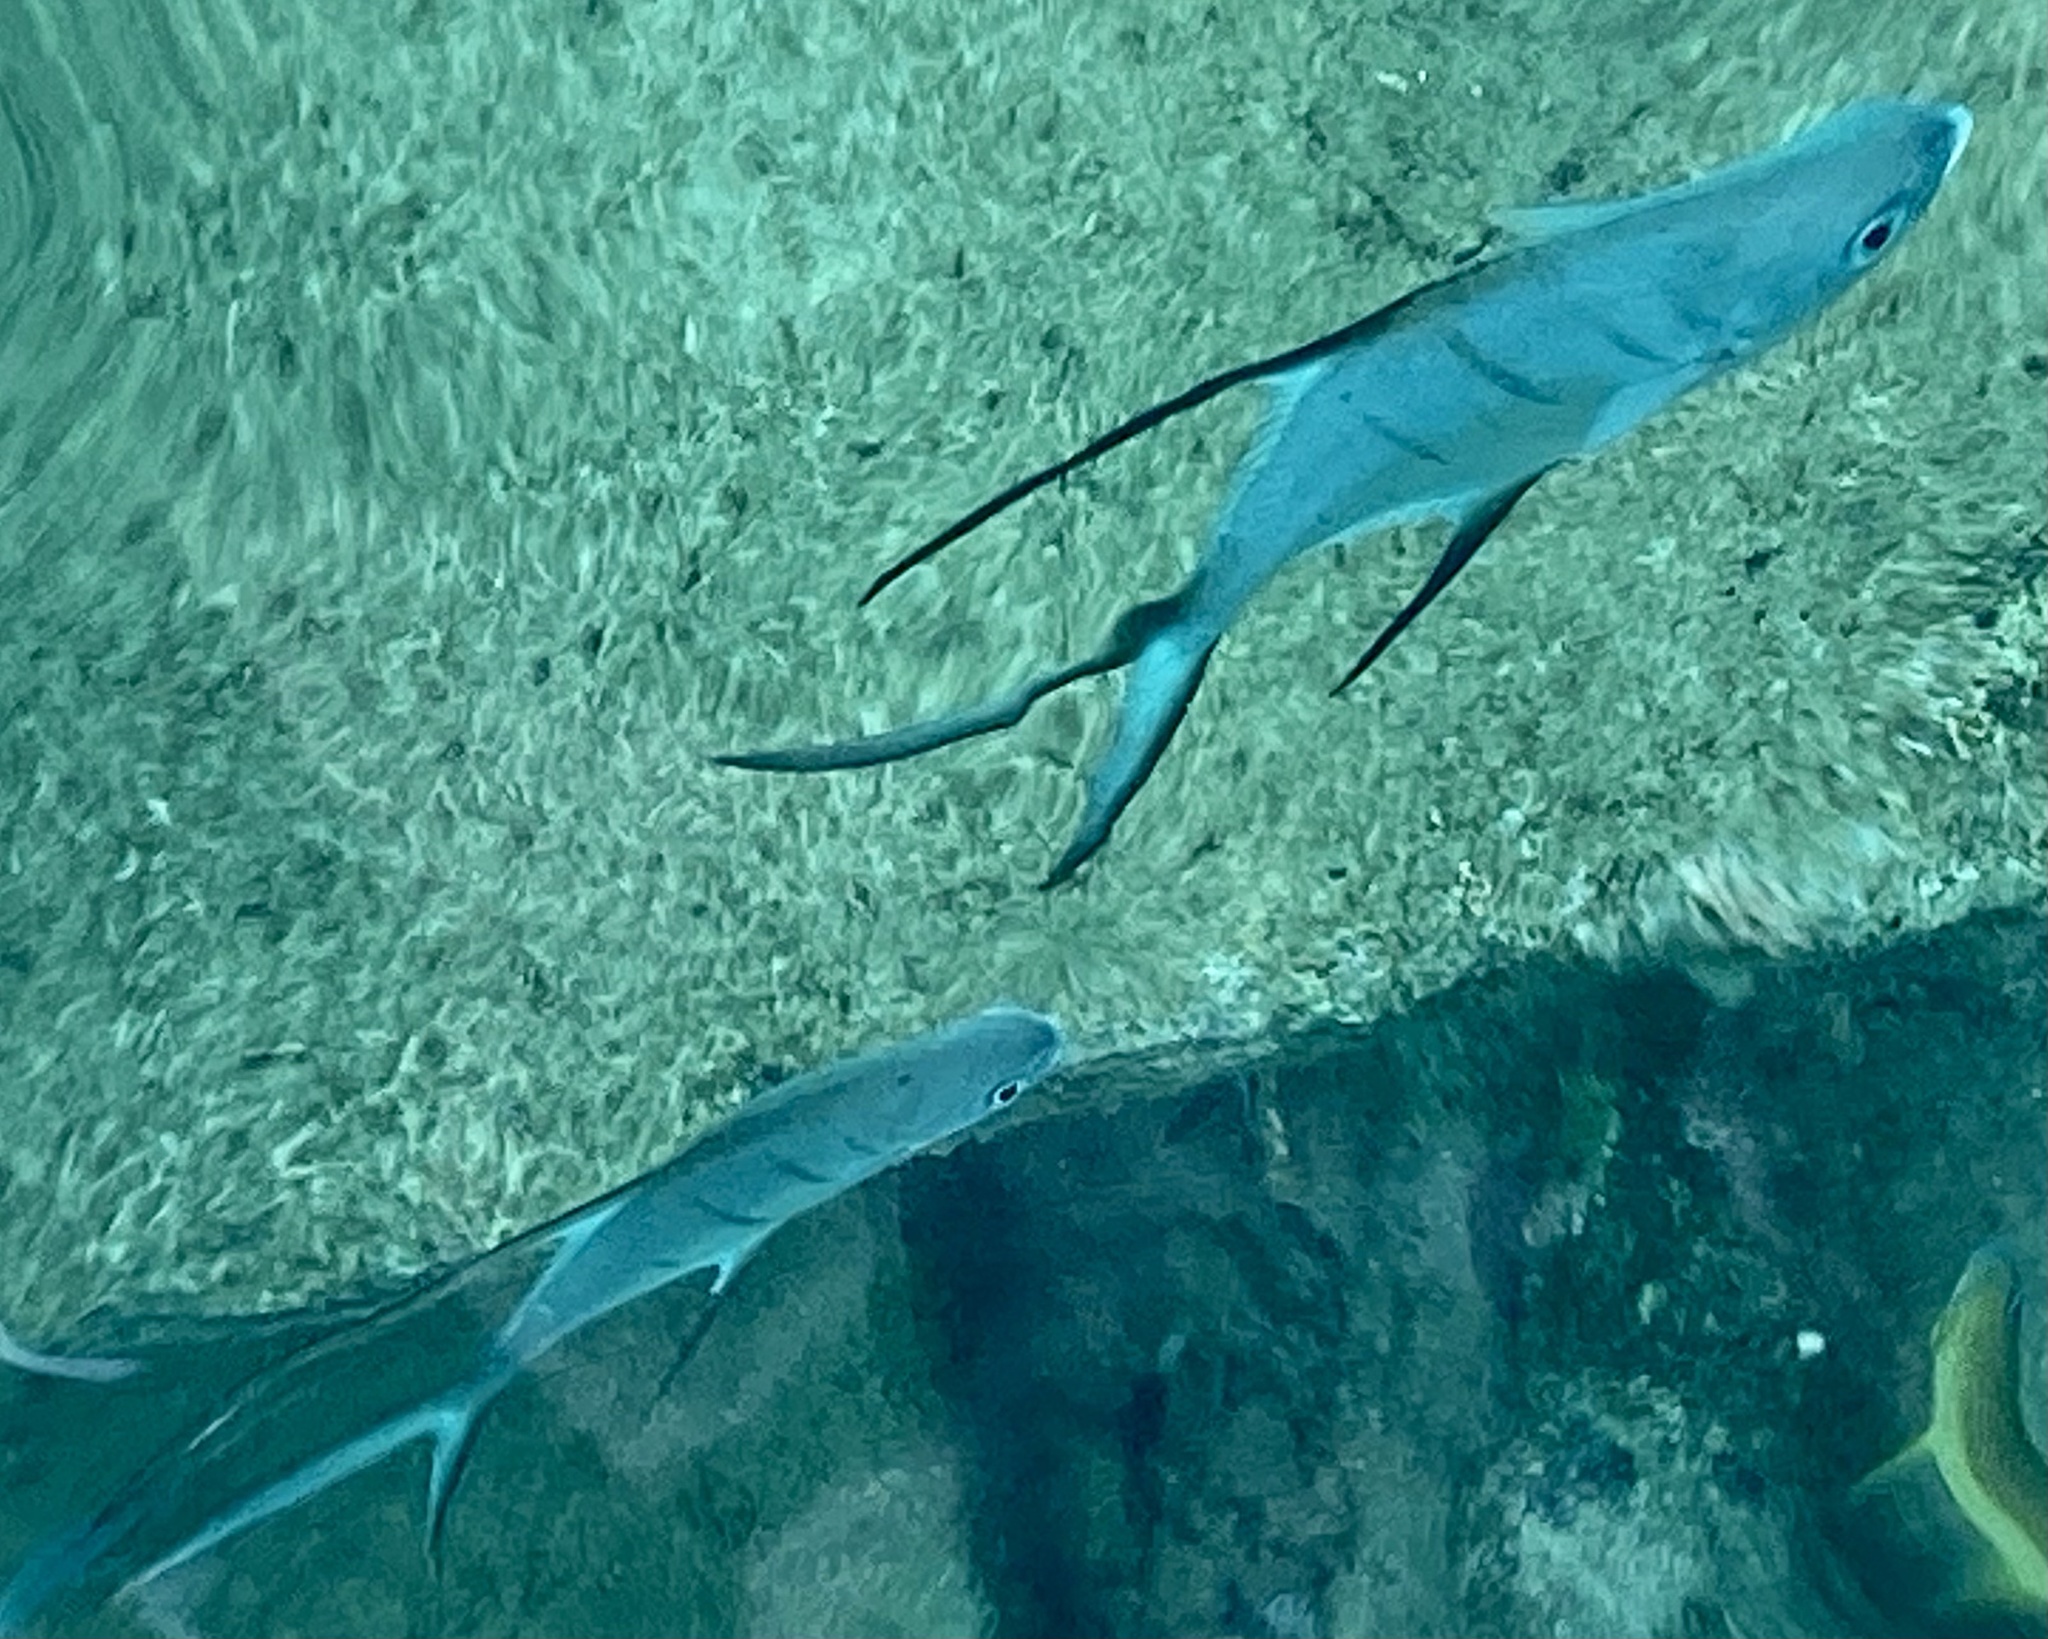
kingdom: Animalia
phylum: Chordata
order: Perciformes
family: Carangidae
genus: Trachinotus
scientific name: Trachinotus goodei
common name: Palometa
